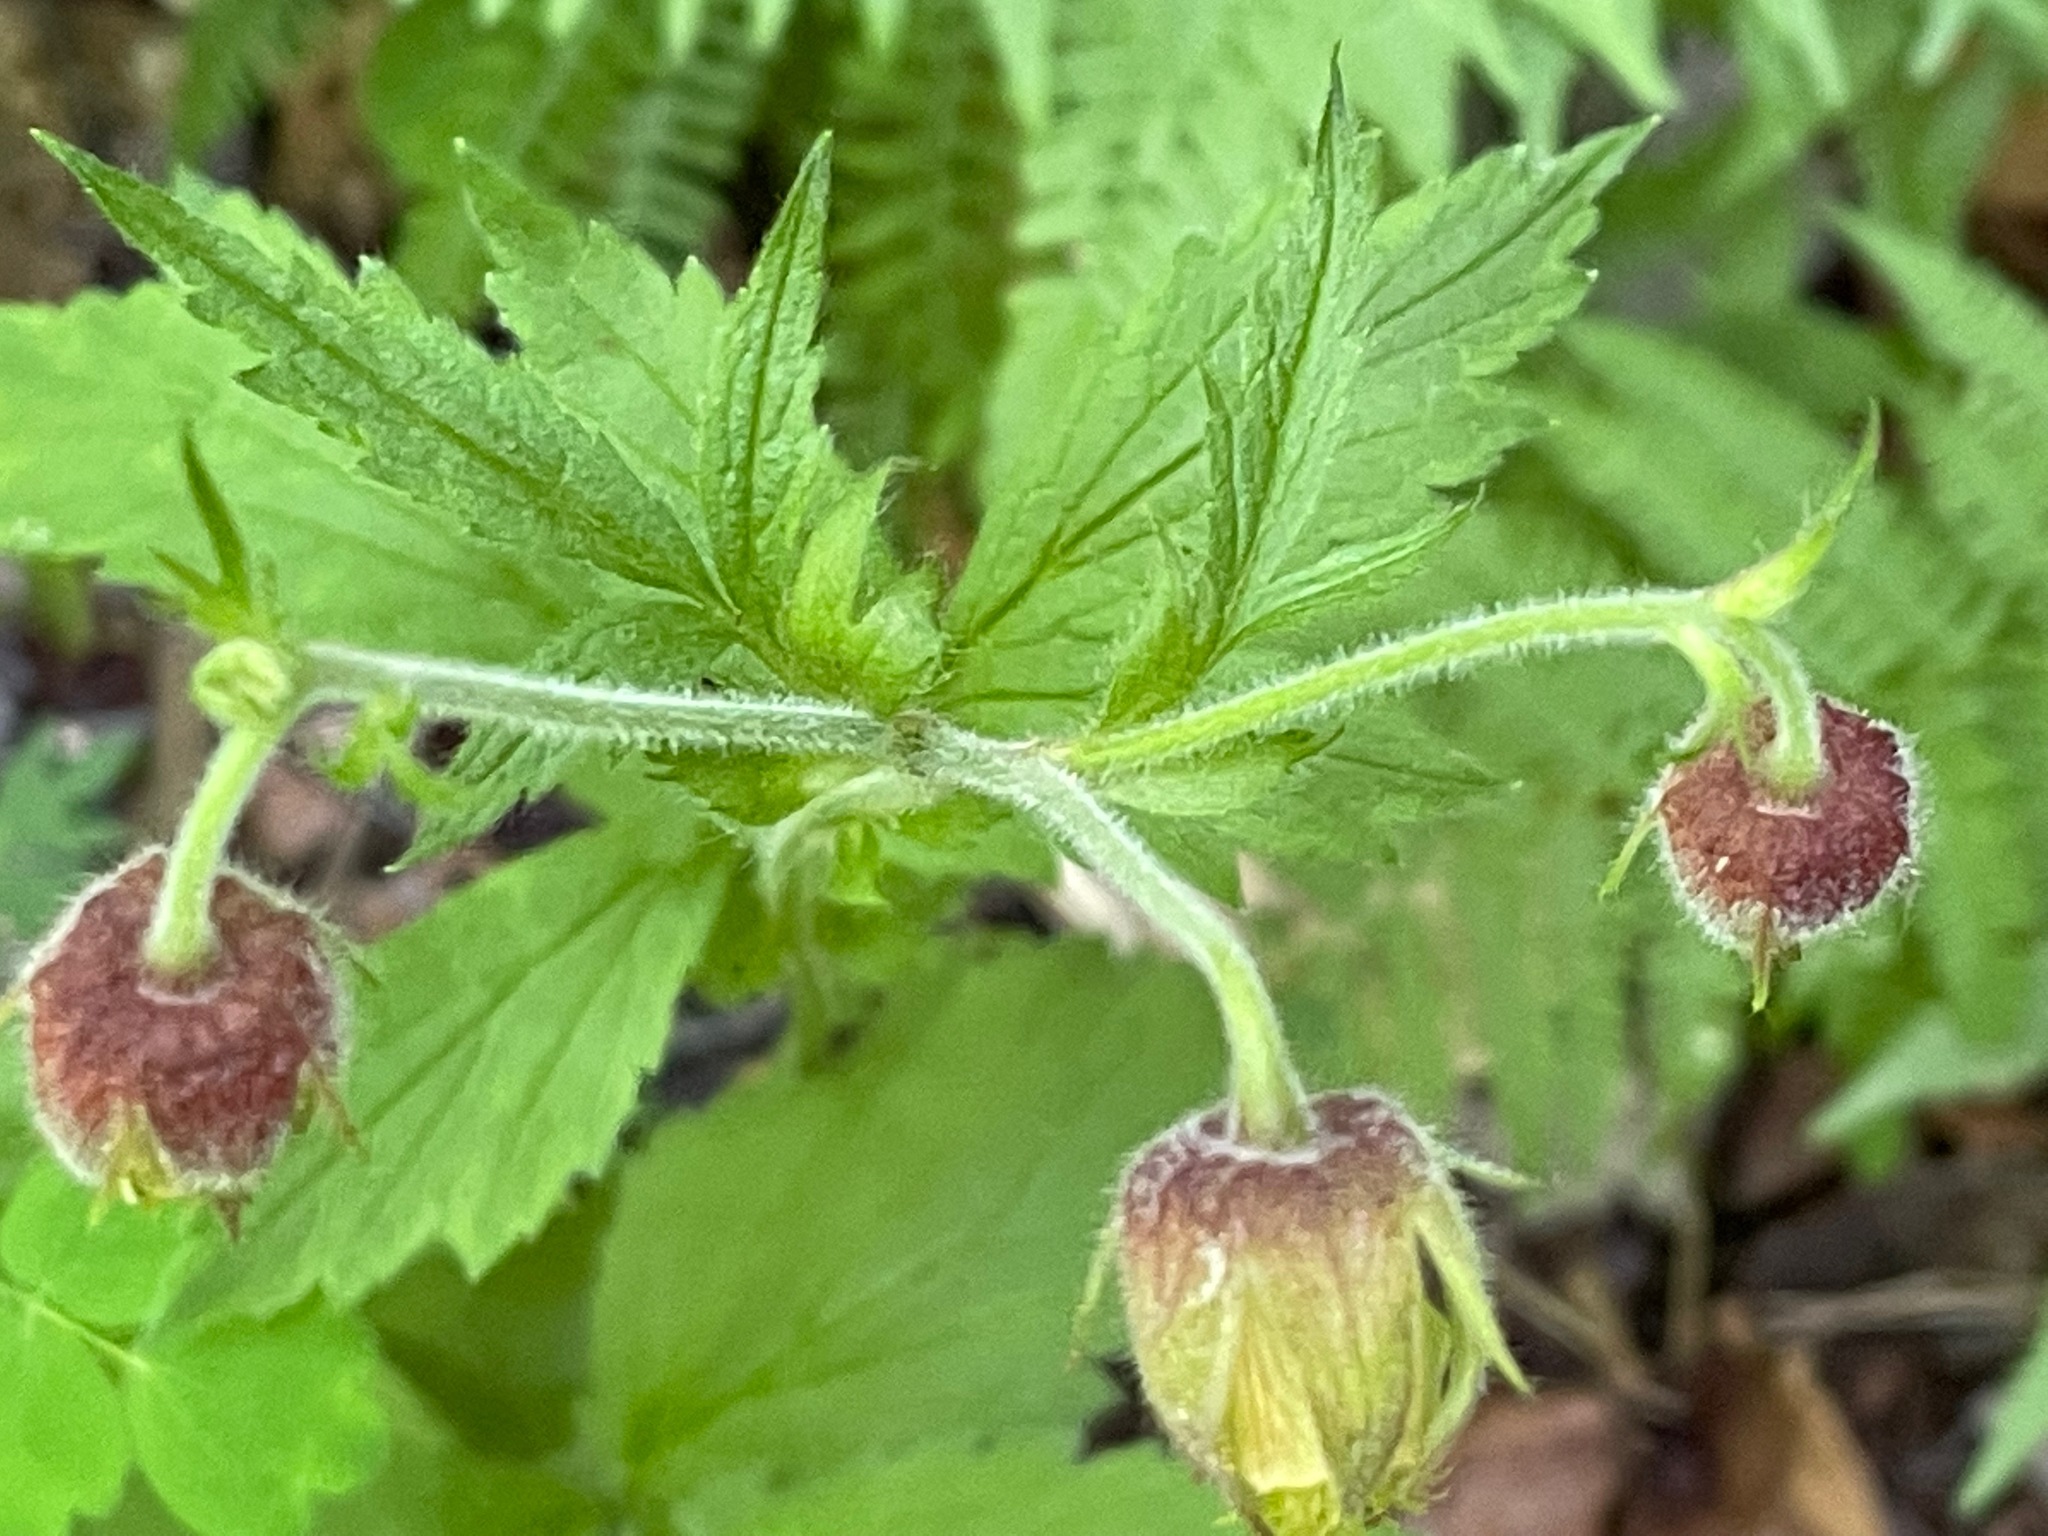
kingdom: Plantae
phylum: Tracheophyta
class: Magnoliopsida
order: Rosales
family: Rosaceae
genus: Geum
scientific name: Geum rivale
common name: Water avens
